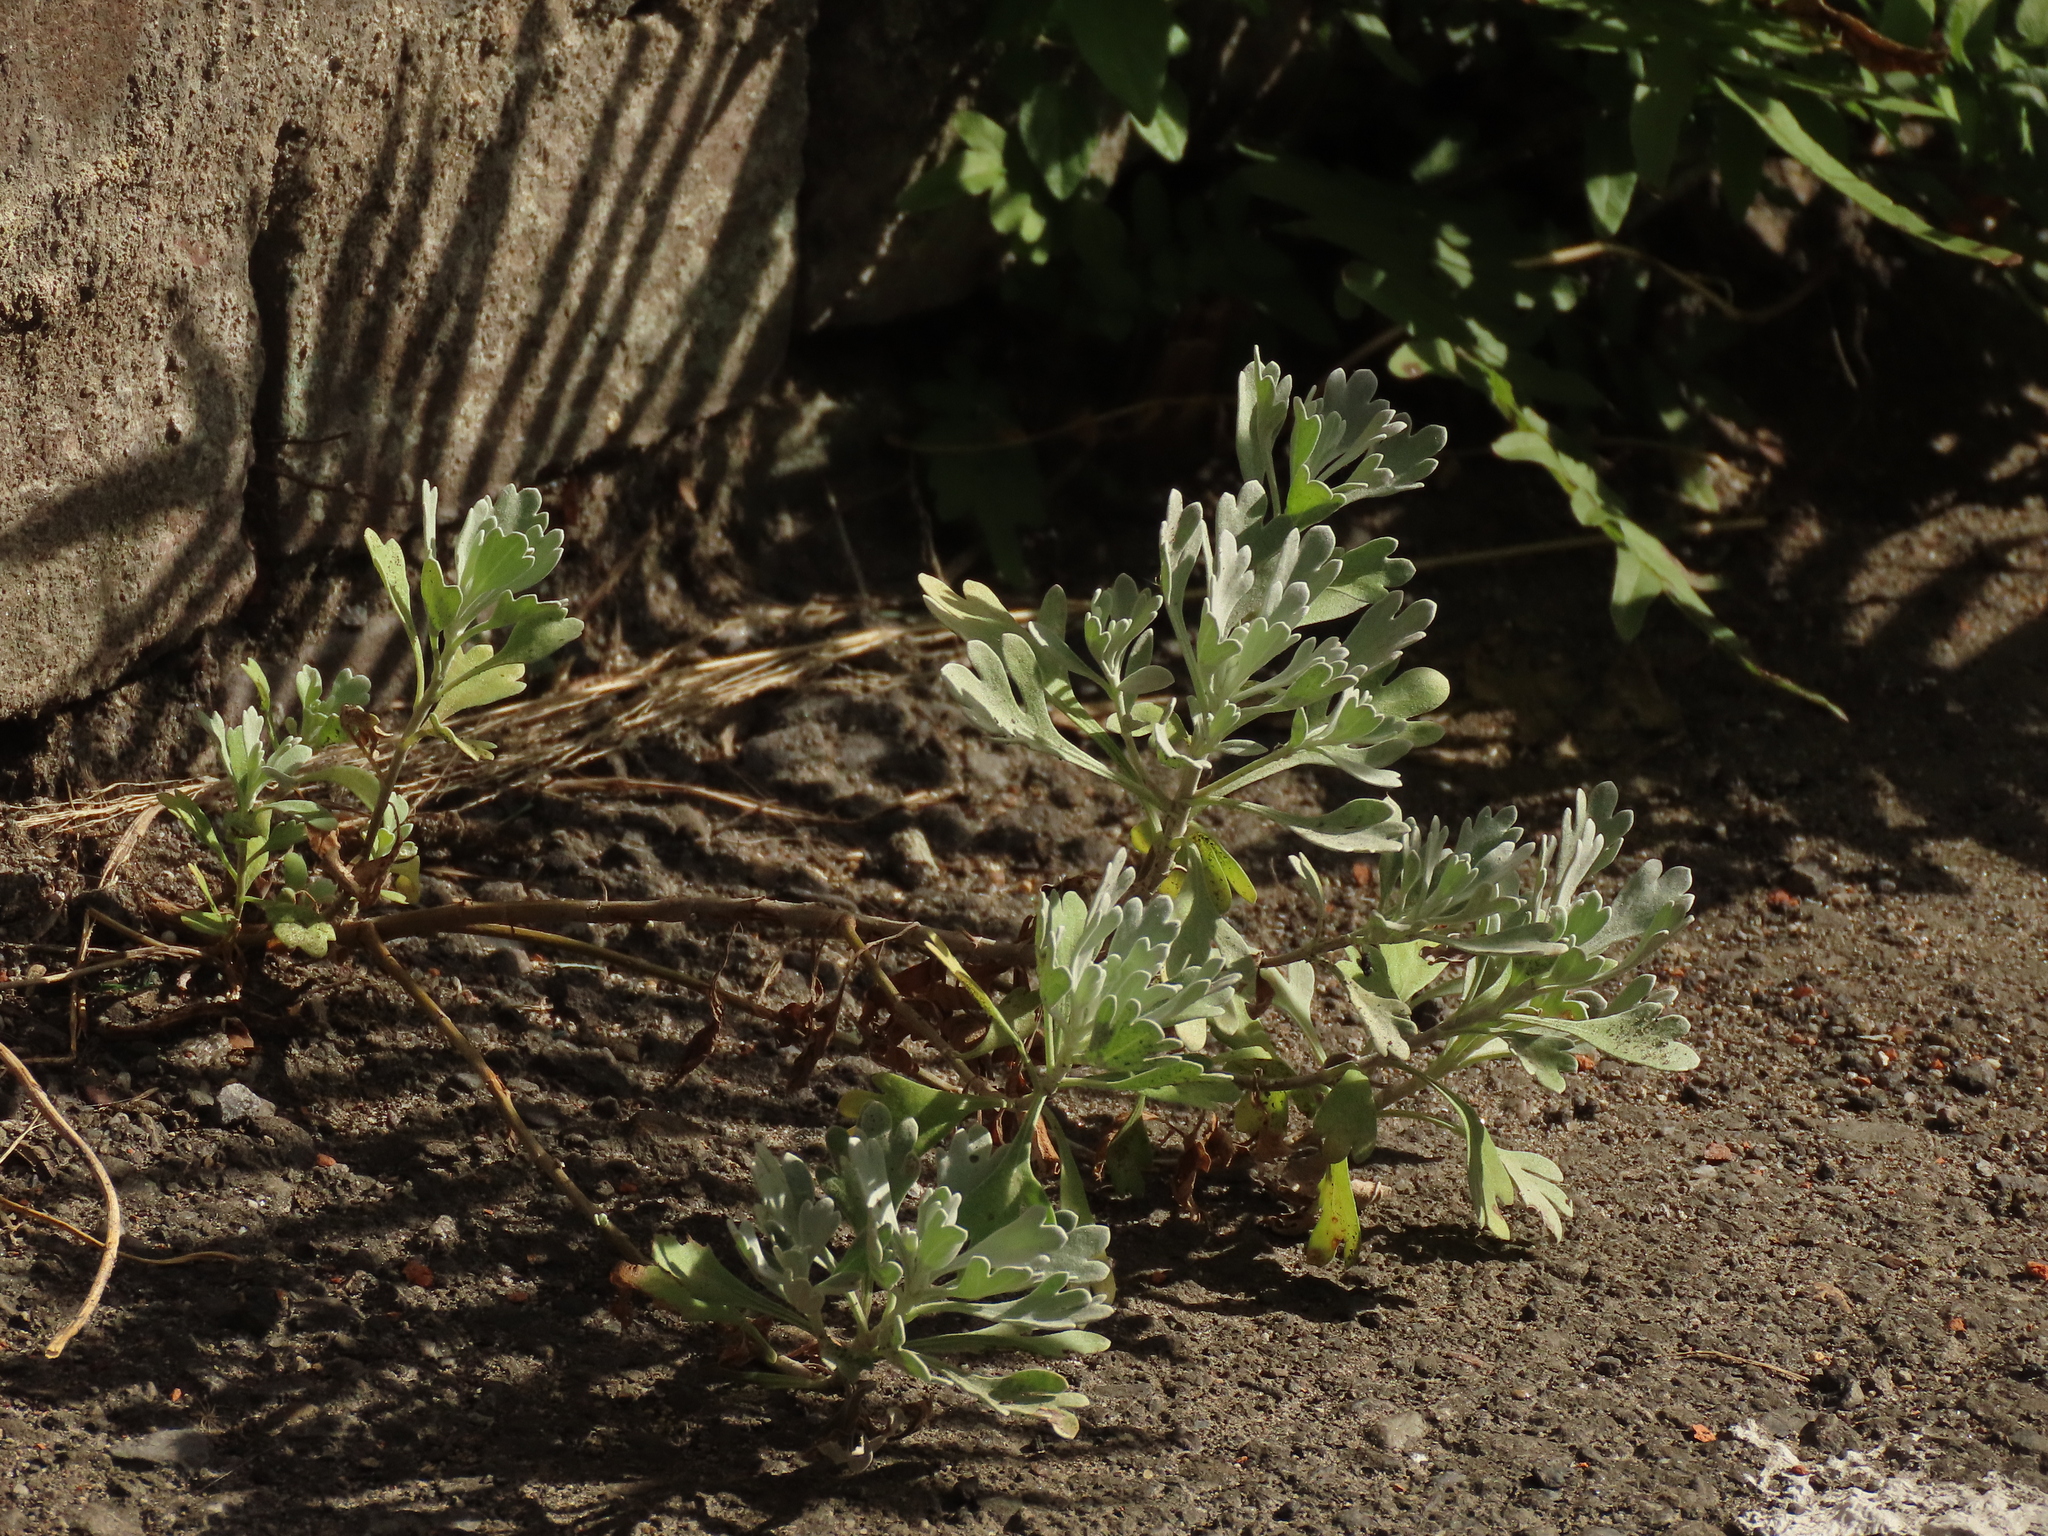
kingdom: Plantae
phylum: Tracheophyta
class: Magnoliopsida
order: Asterales
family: Asteraceae
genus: Crossostephium
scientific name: Crossostephium chinense
